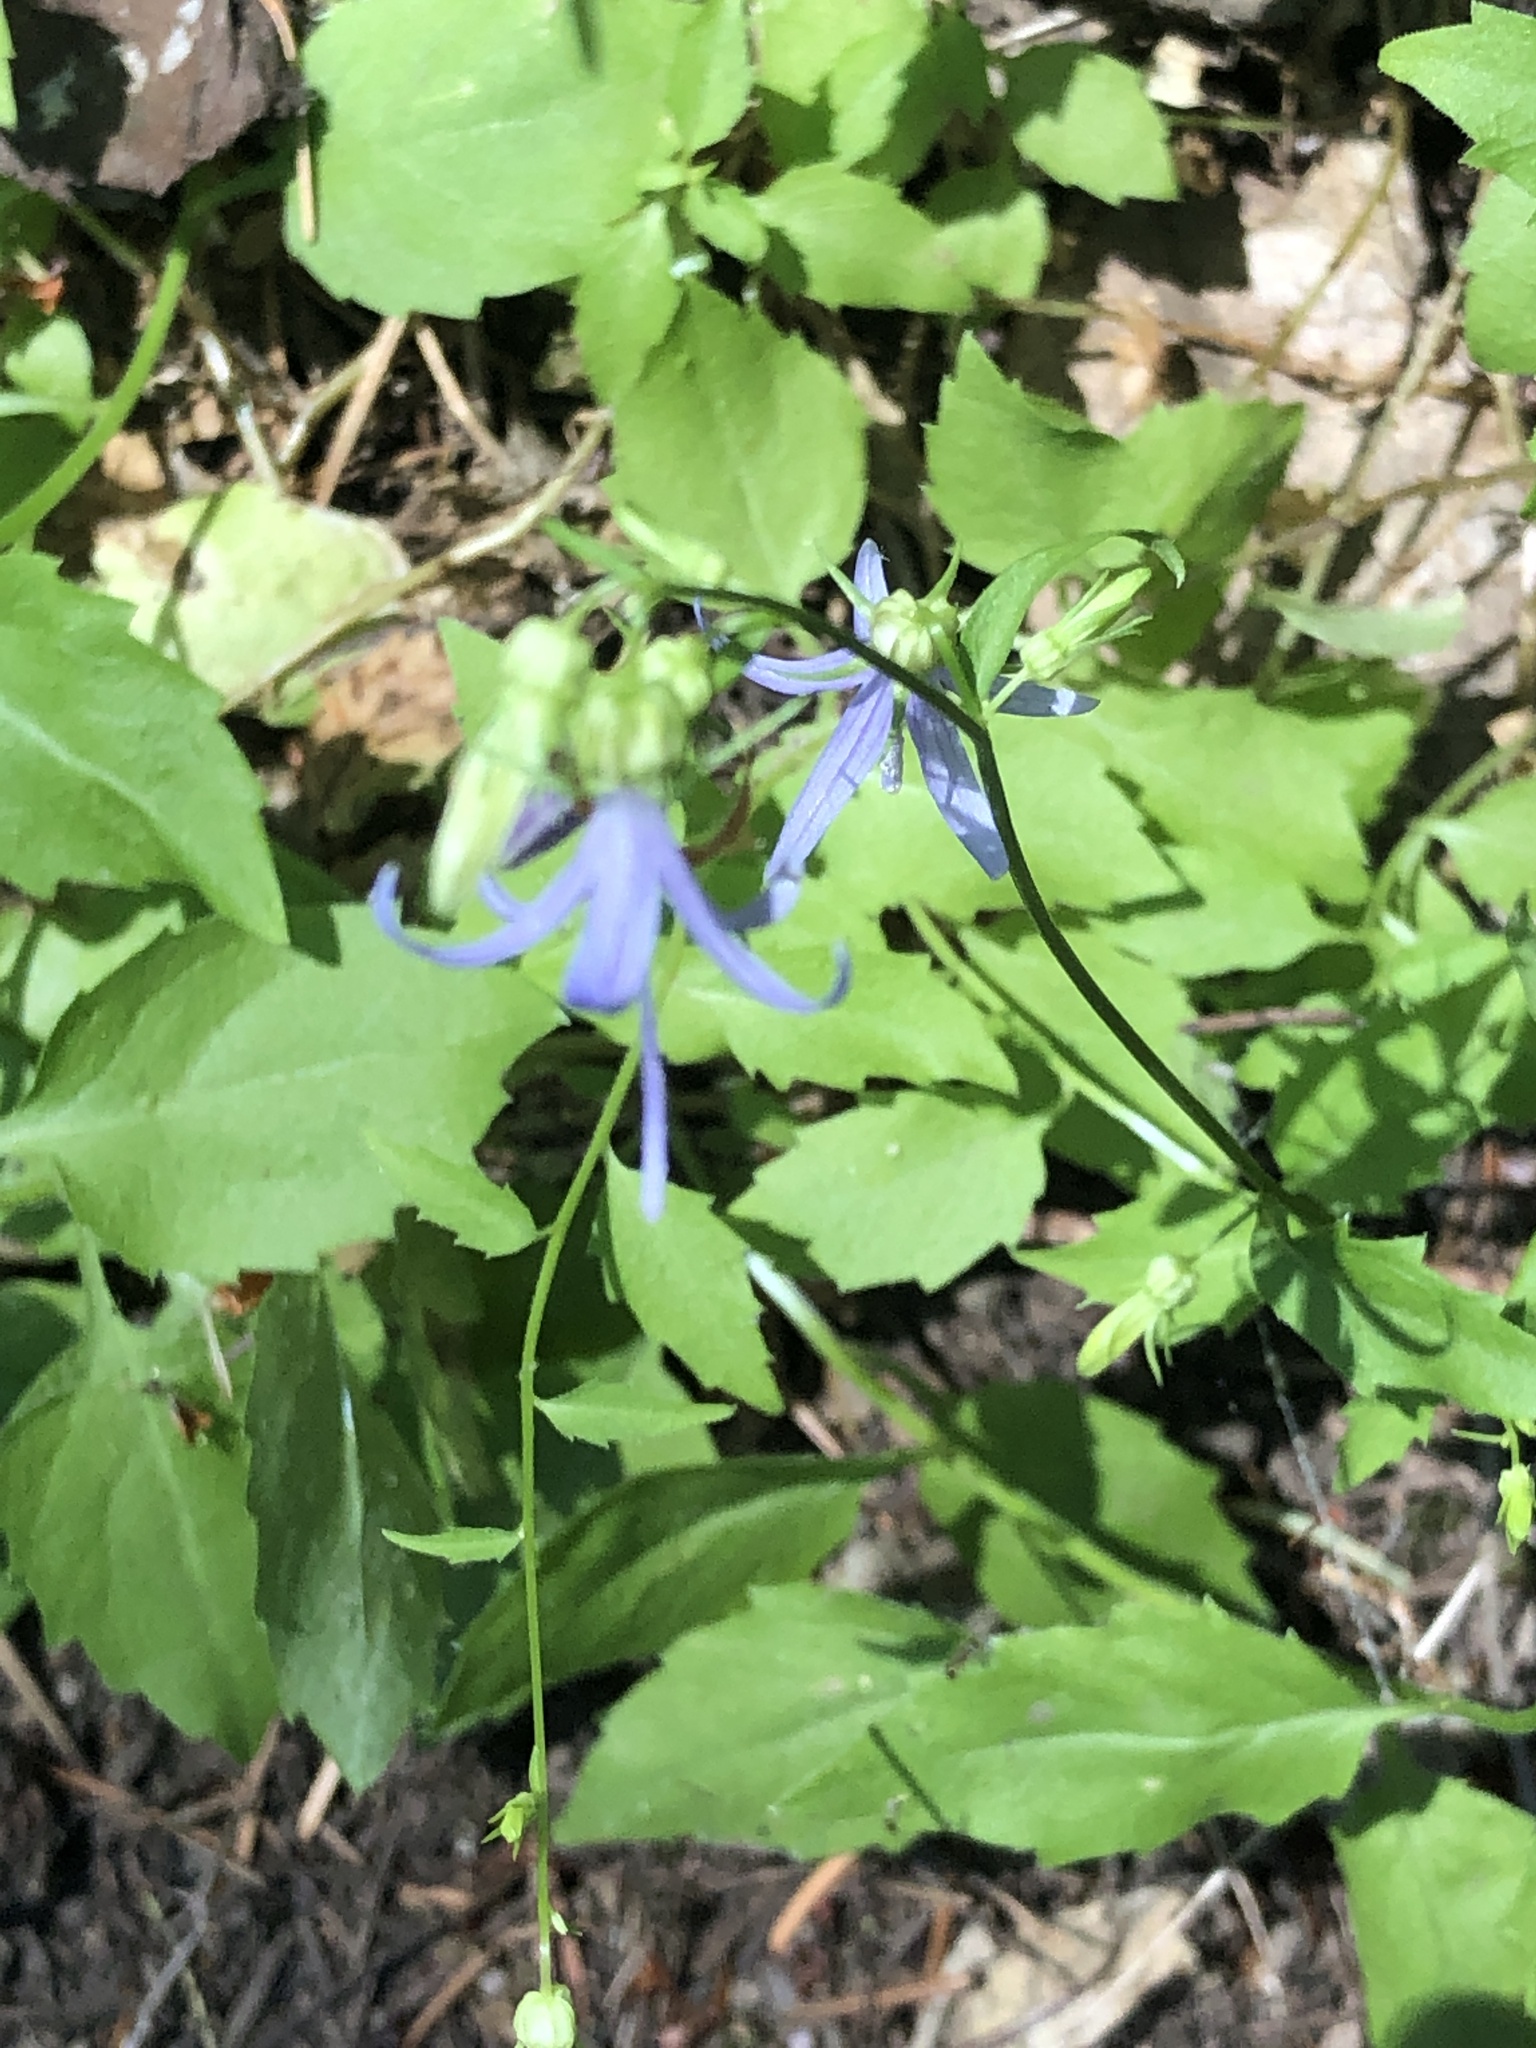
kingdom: Plantae
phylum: Tracheophyta
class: Magnoliopsida
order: Asterales
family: Campanulaceae
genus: Smithiastrum
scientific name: Smithiastrum prenanthoides
